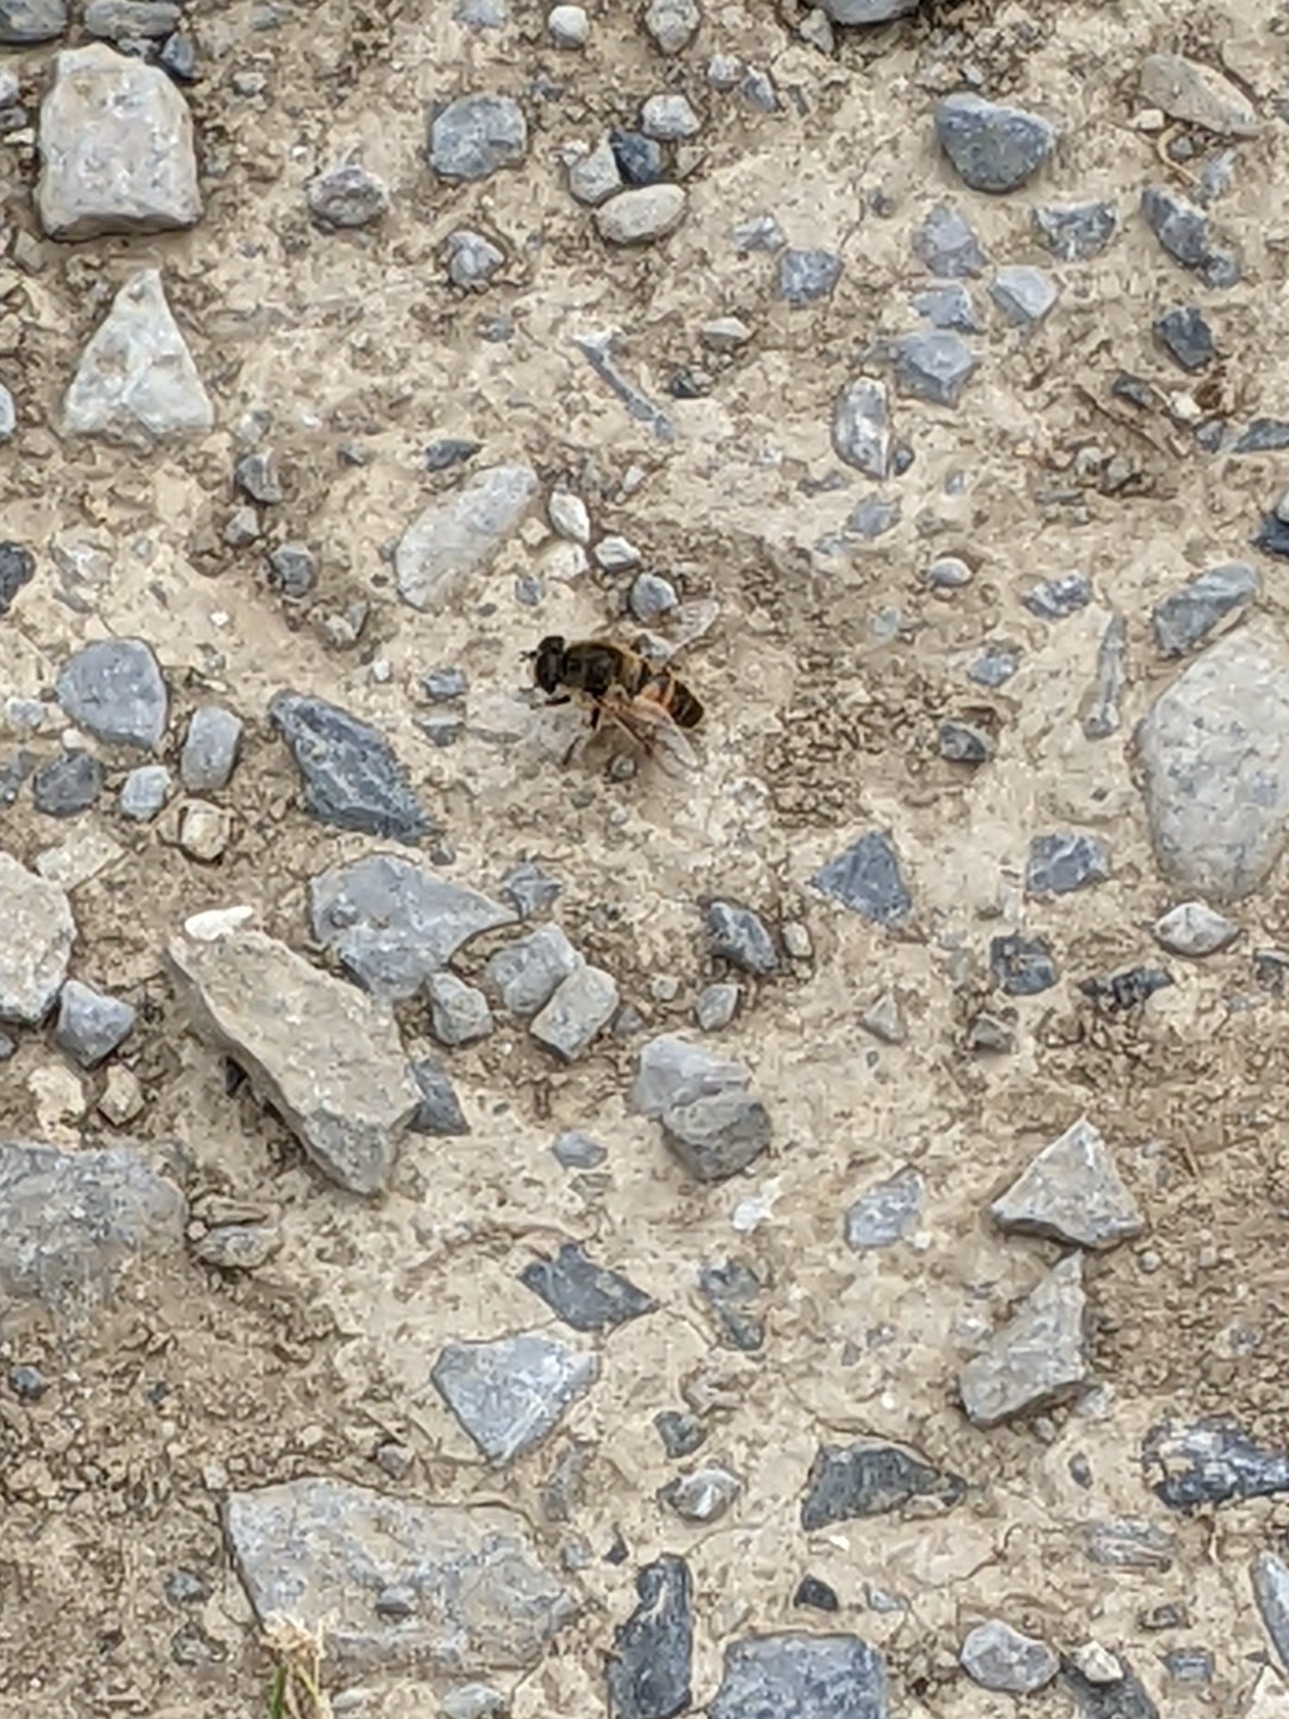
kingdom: Animalia
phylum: Arthropoda
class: Insecta
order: Diptera
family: Syrphidae
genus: Eristalis
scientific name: Eristalis tenax
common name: Drone fly
